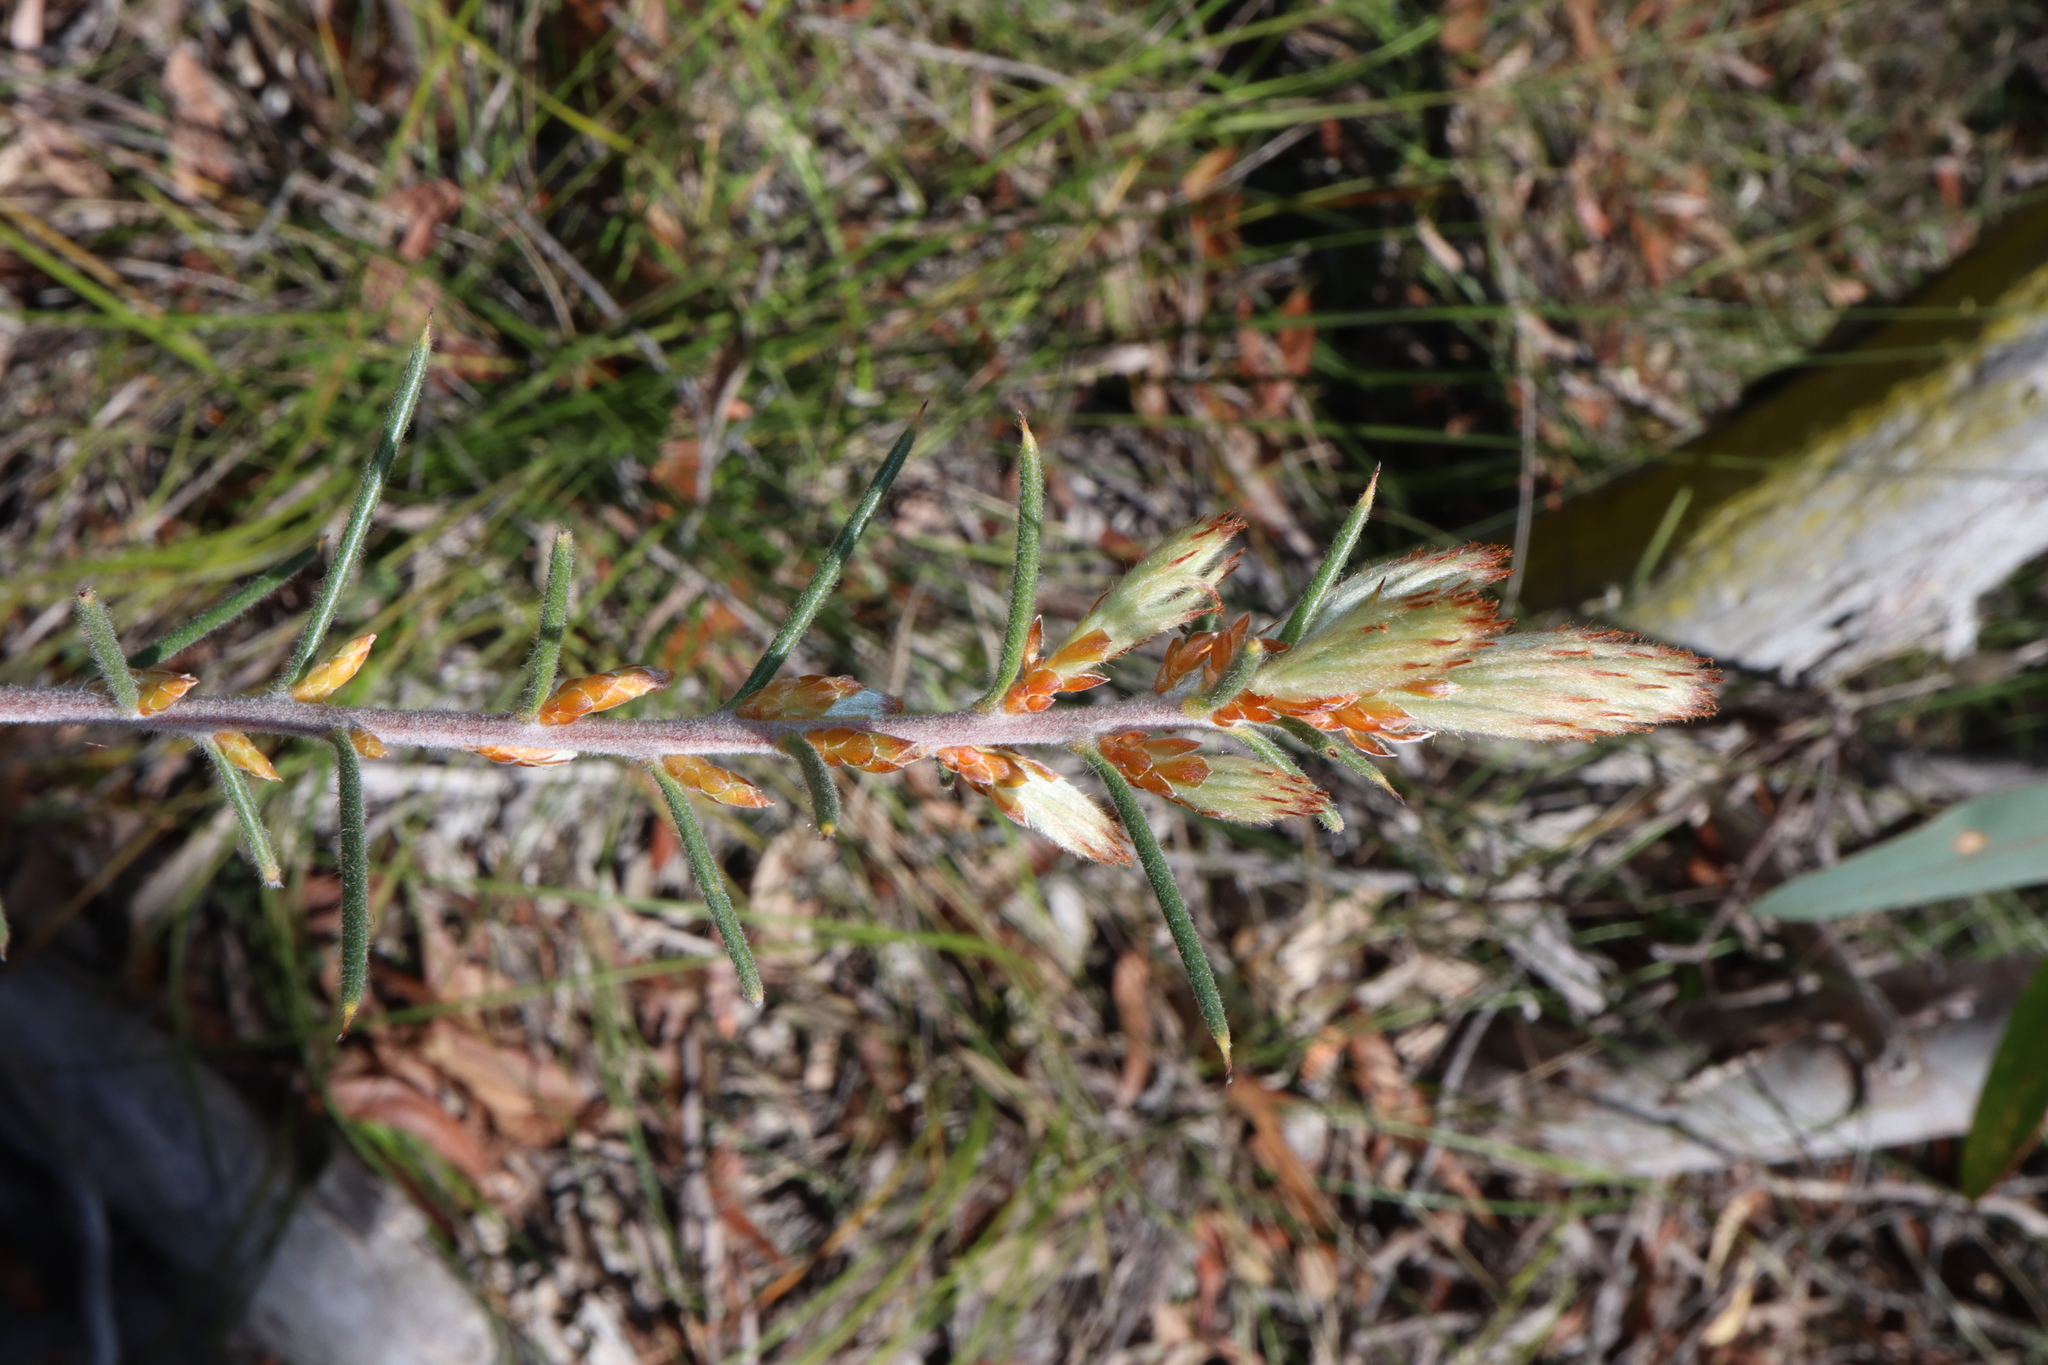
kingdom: Plantae
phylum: Tracheophyta
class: Magnoliopsida
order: Proteales
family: Proteaceae
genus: Hakea
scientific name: Hakea gibbosa
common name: Rock hakea
